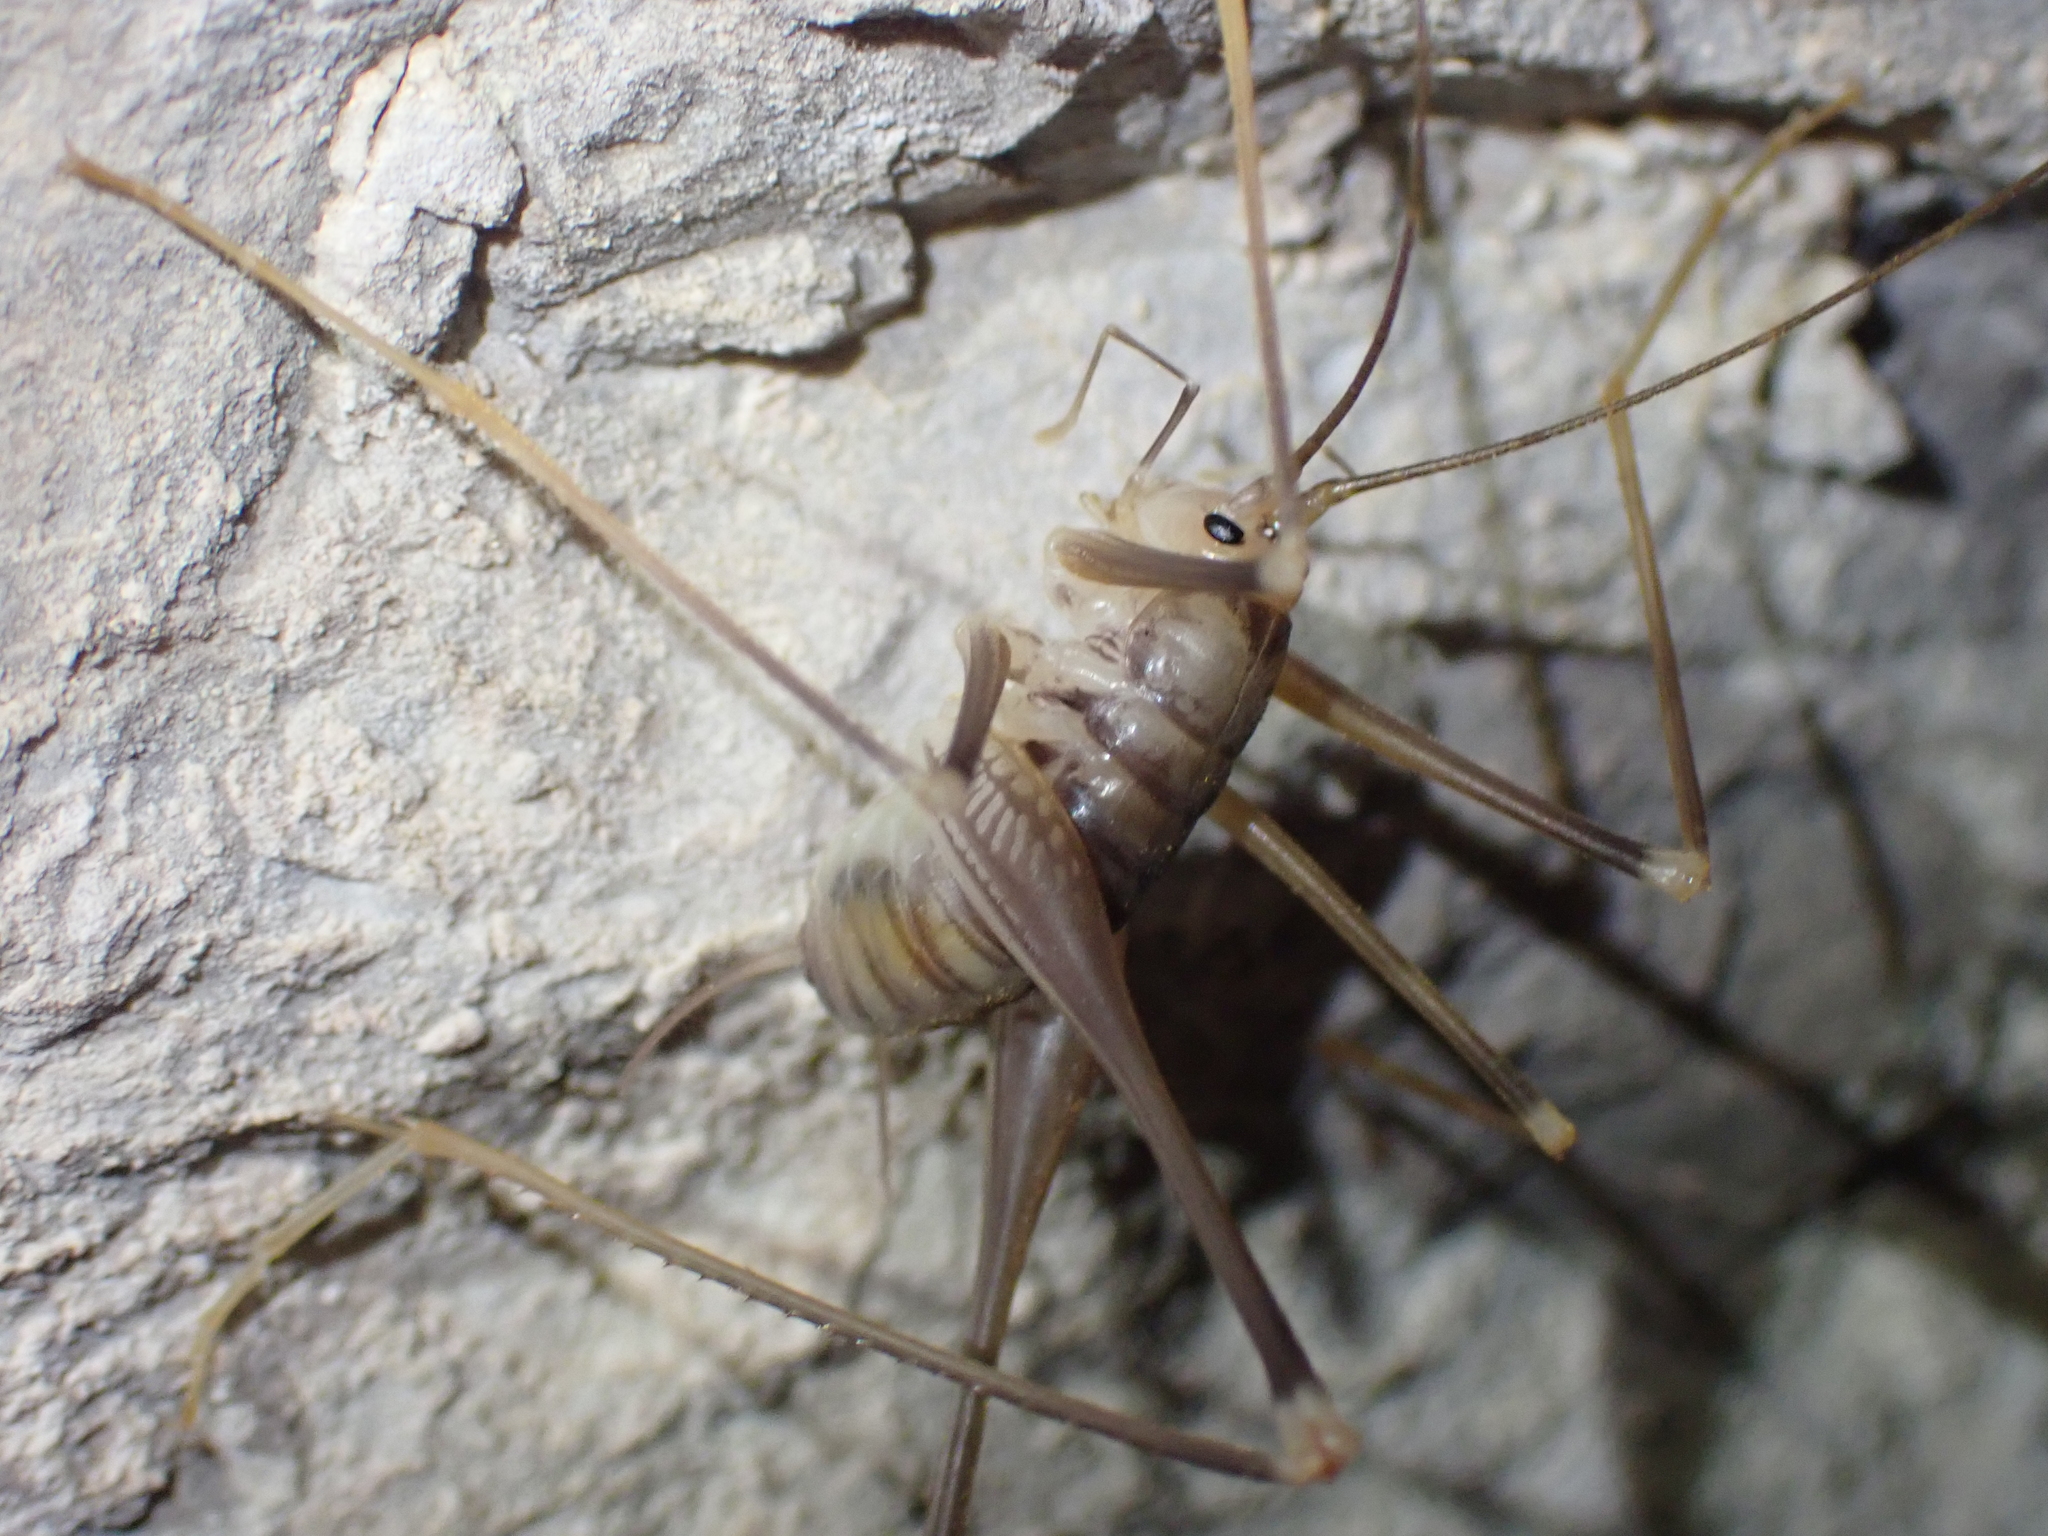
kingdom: Animalia
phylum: Arthropoda
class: Insecta
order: Orthoptera
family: Rhaphidophoridae
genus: Dolichopoda
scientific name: Dolichopoda azami
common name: Azam's cave-cricket
